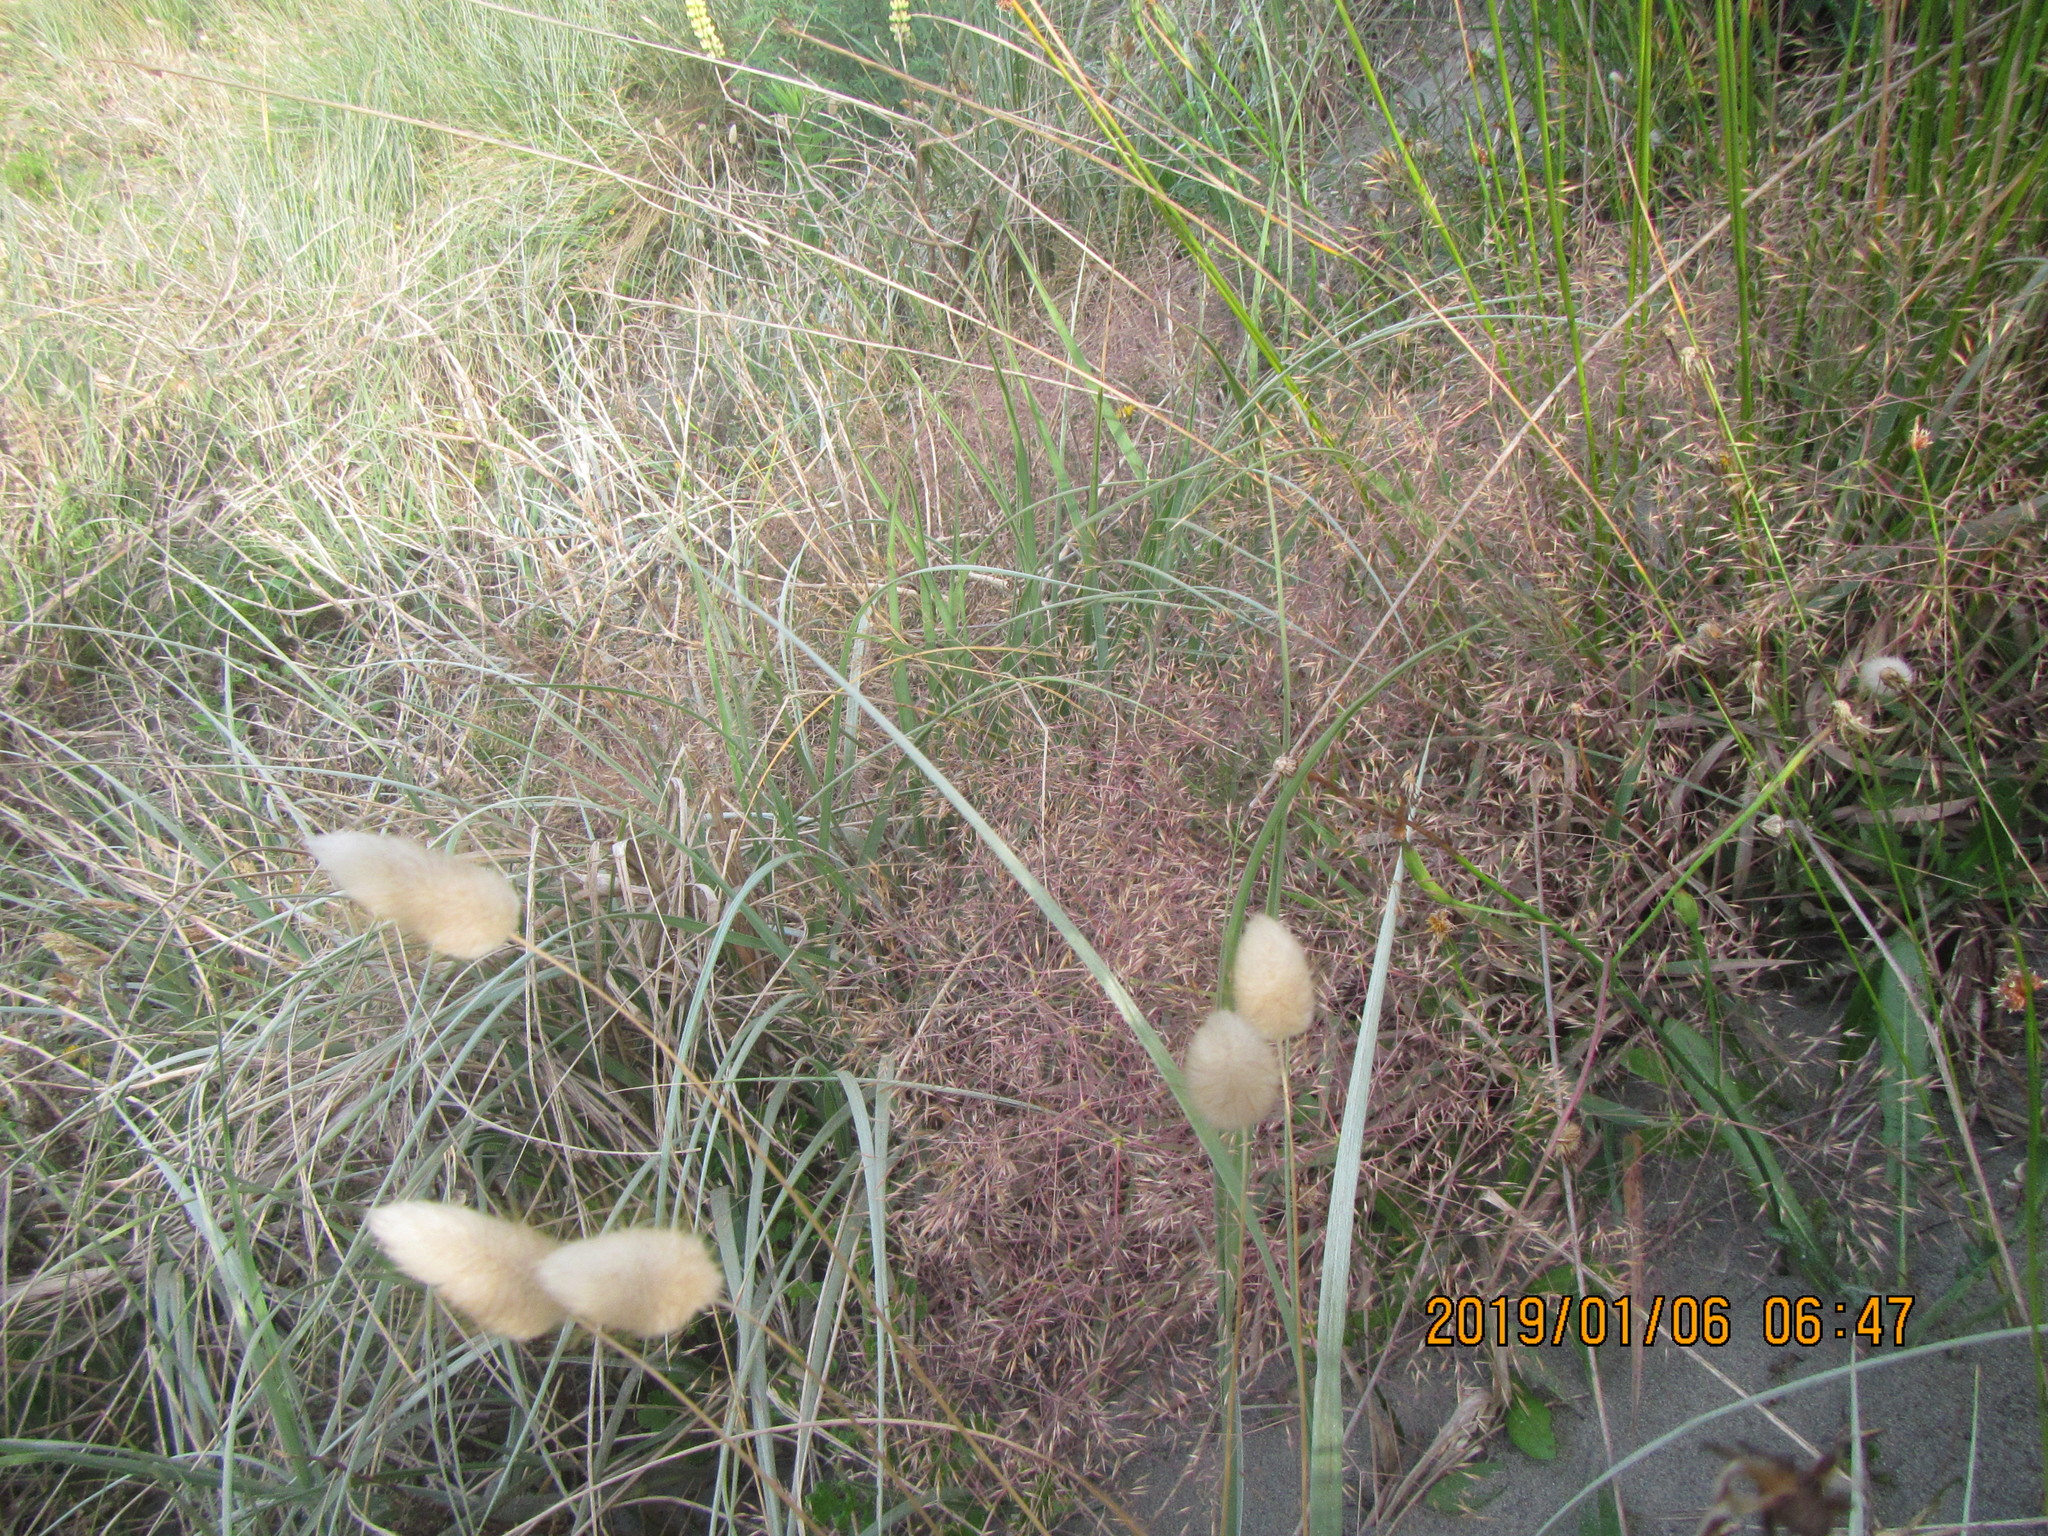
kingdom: Plantae
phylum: Tracheophyta
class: Liliopsida
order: Poales
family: Poaceae
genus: Lachnagrostis
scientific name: Lachnagrostis billardierei
